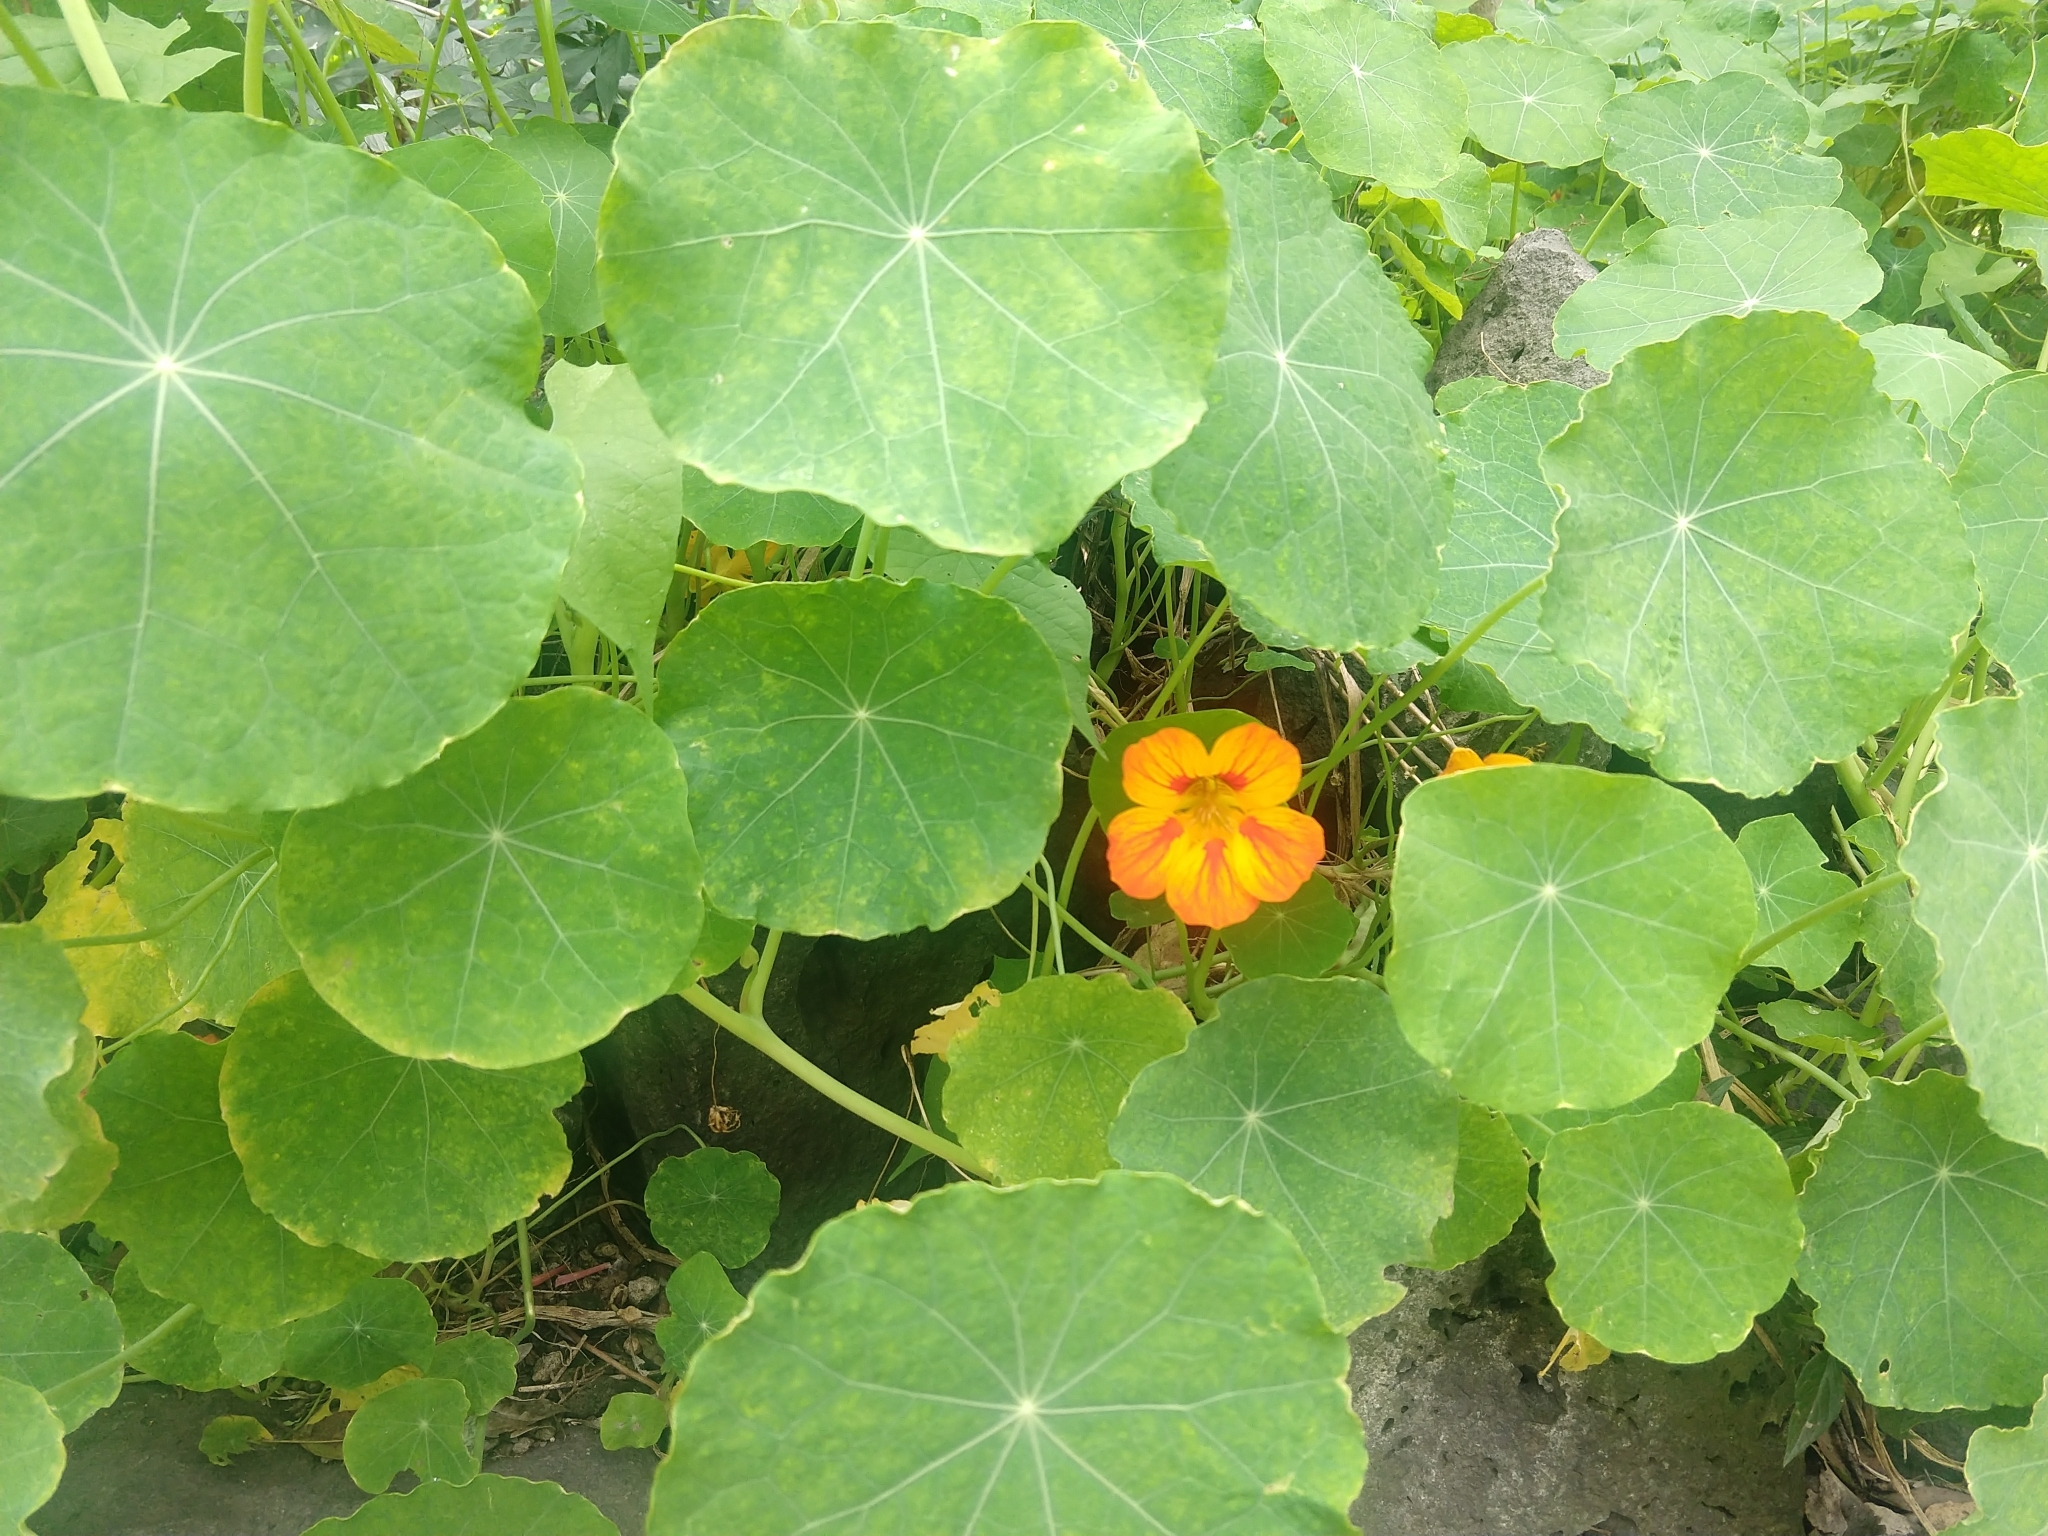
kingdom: Plantae
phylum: Tracheophyta
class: Magnoliopsida
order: Brassicales
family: Tropaeolaceae
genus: Tropaeolum
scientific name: Tropaeolum majus
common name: Nasturtium
